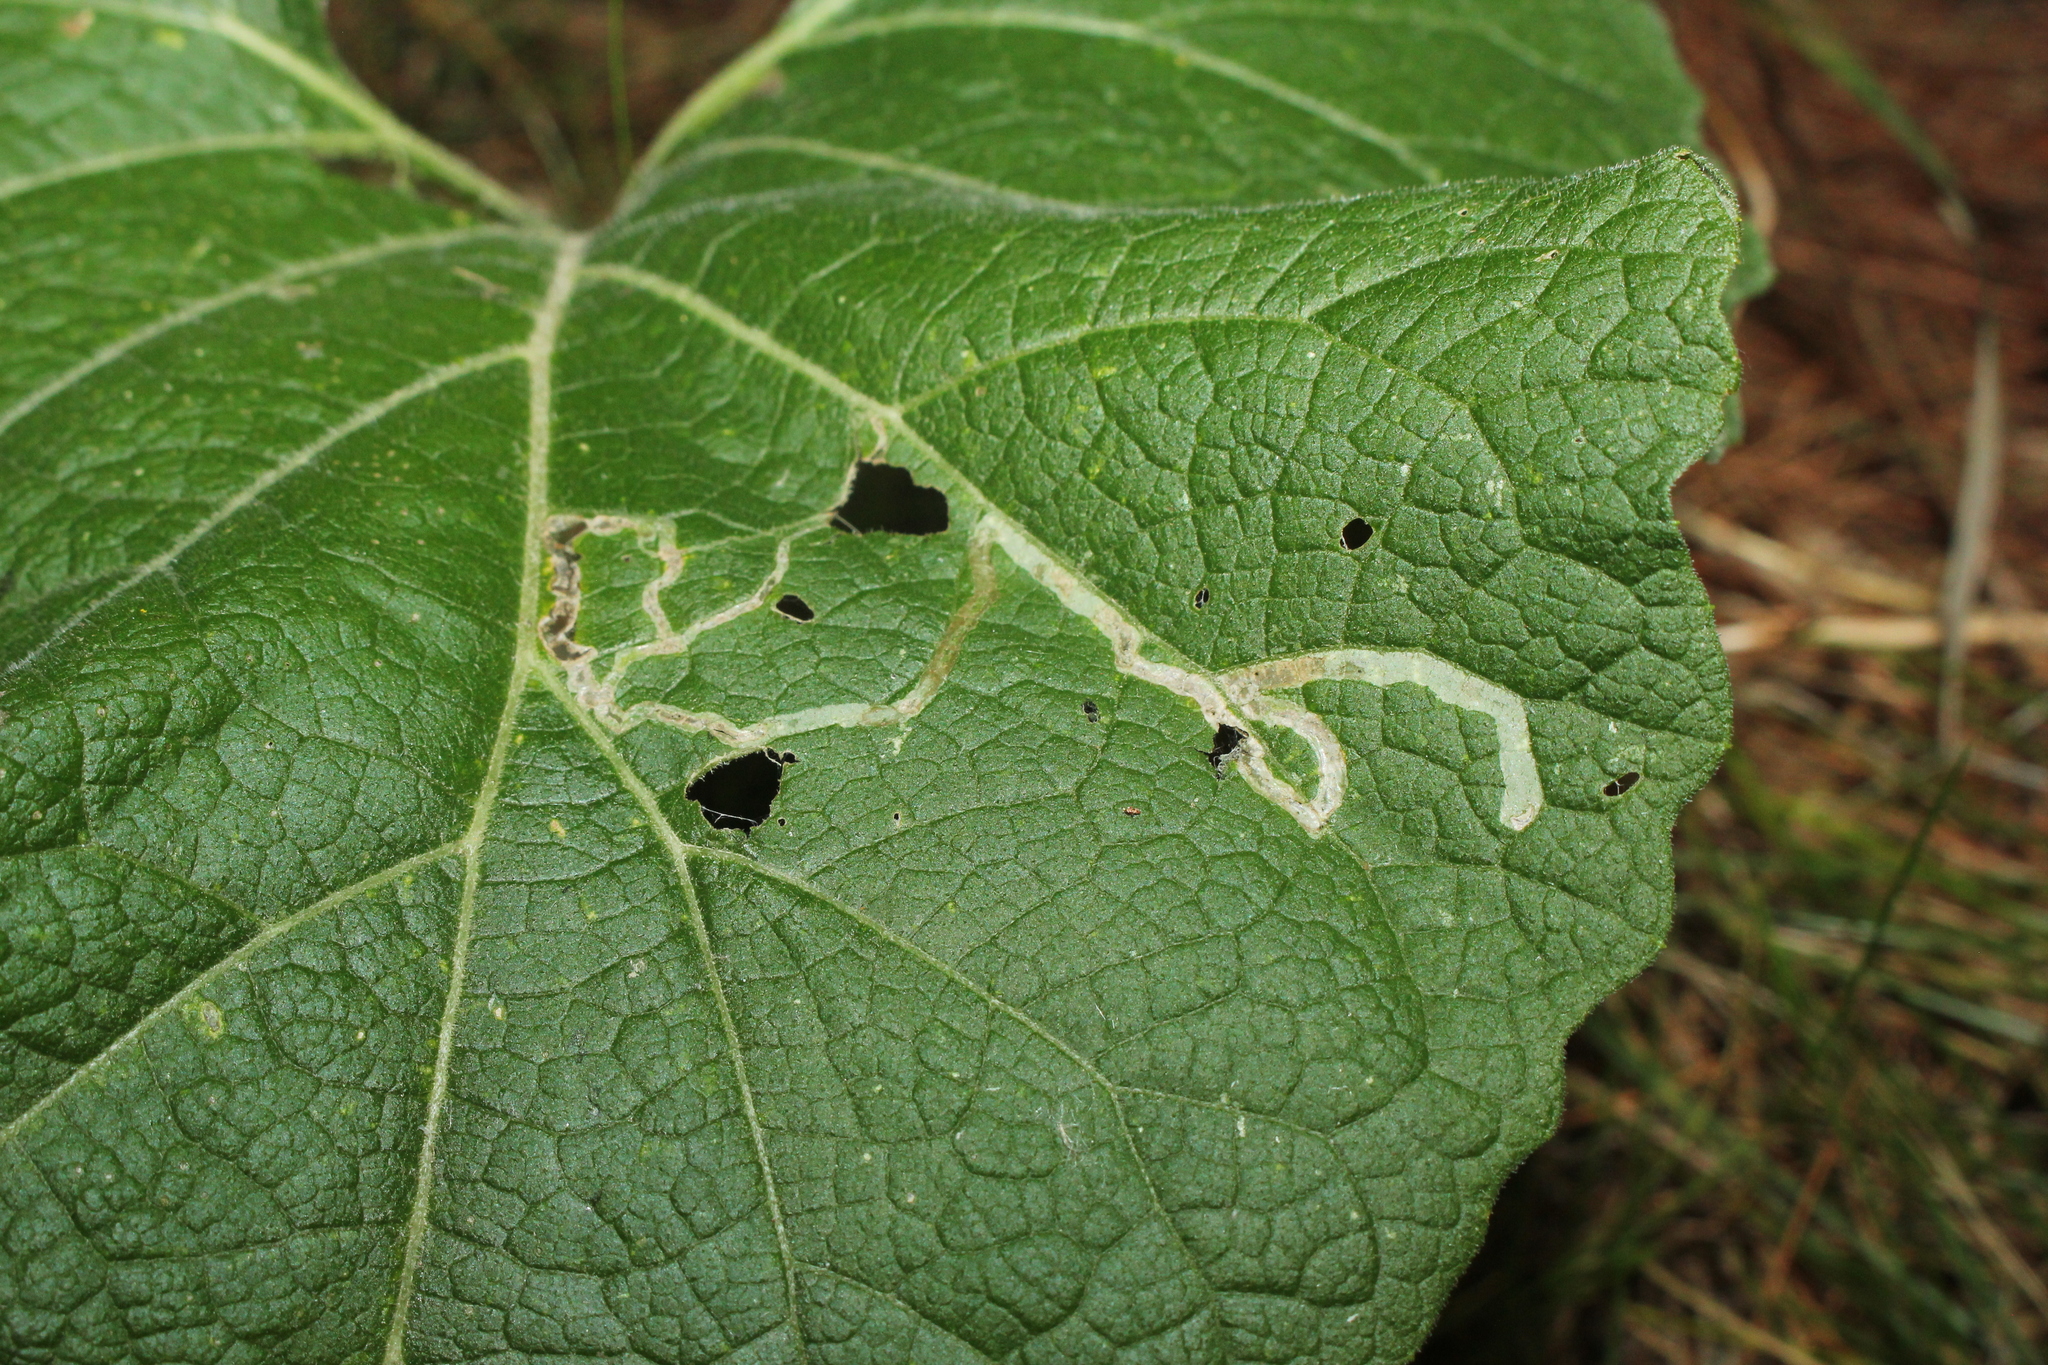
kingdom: Animalia
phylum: Arthropoda
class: Insecta
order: Diptera
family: Agromyzidae
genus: Liriomyza
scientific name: Liriomyza arctii
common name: Burdock leafminer
